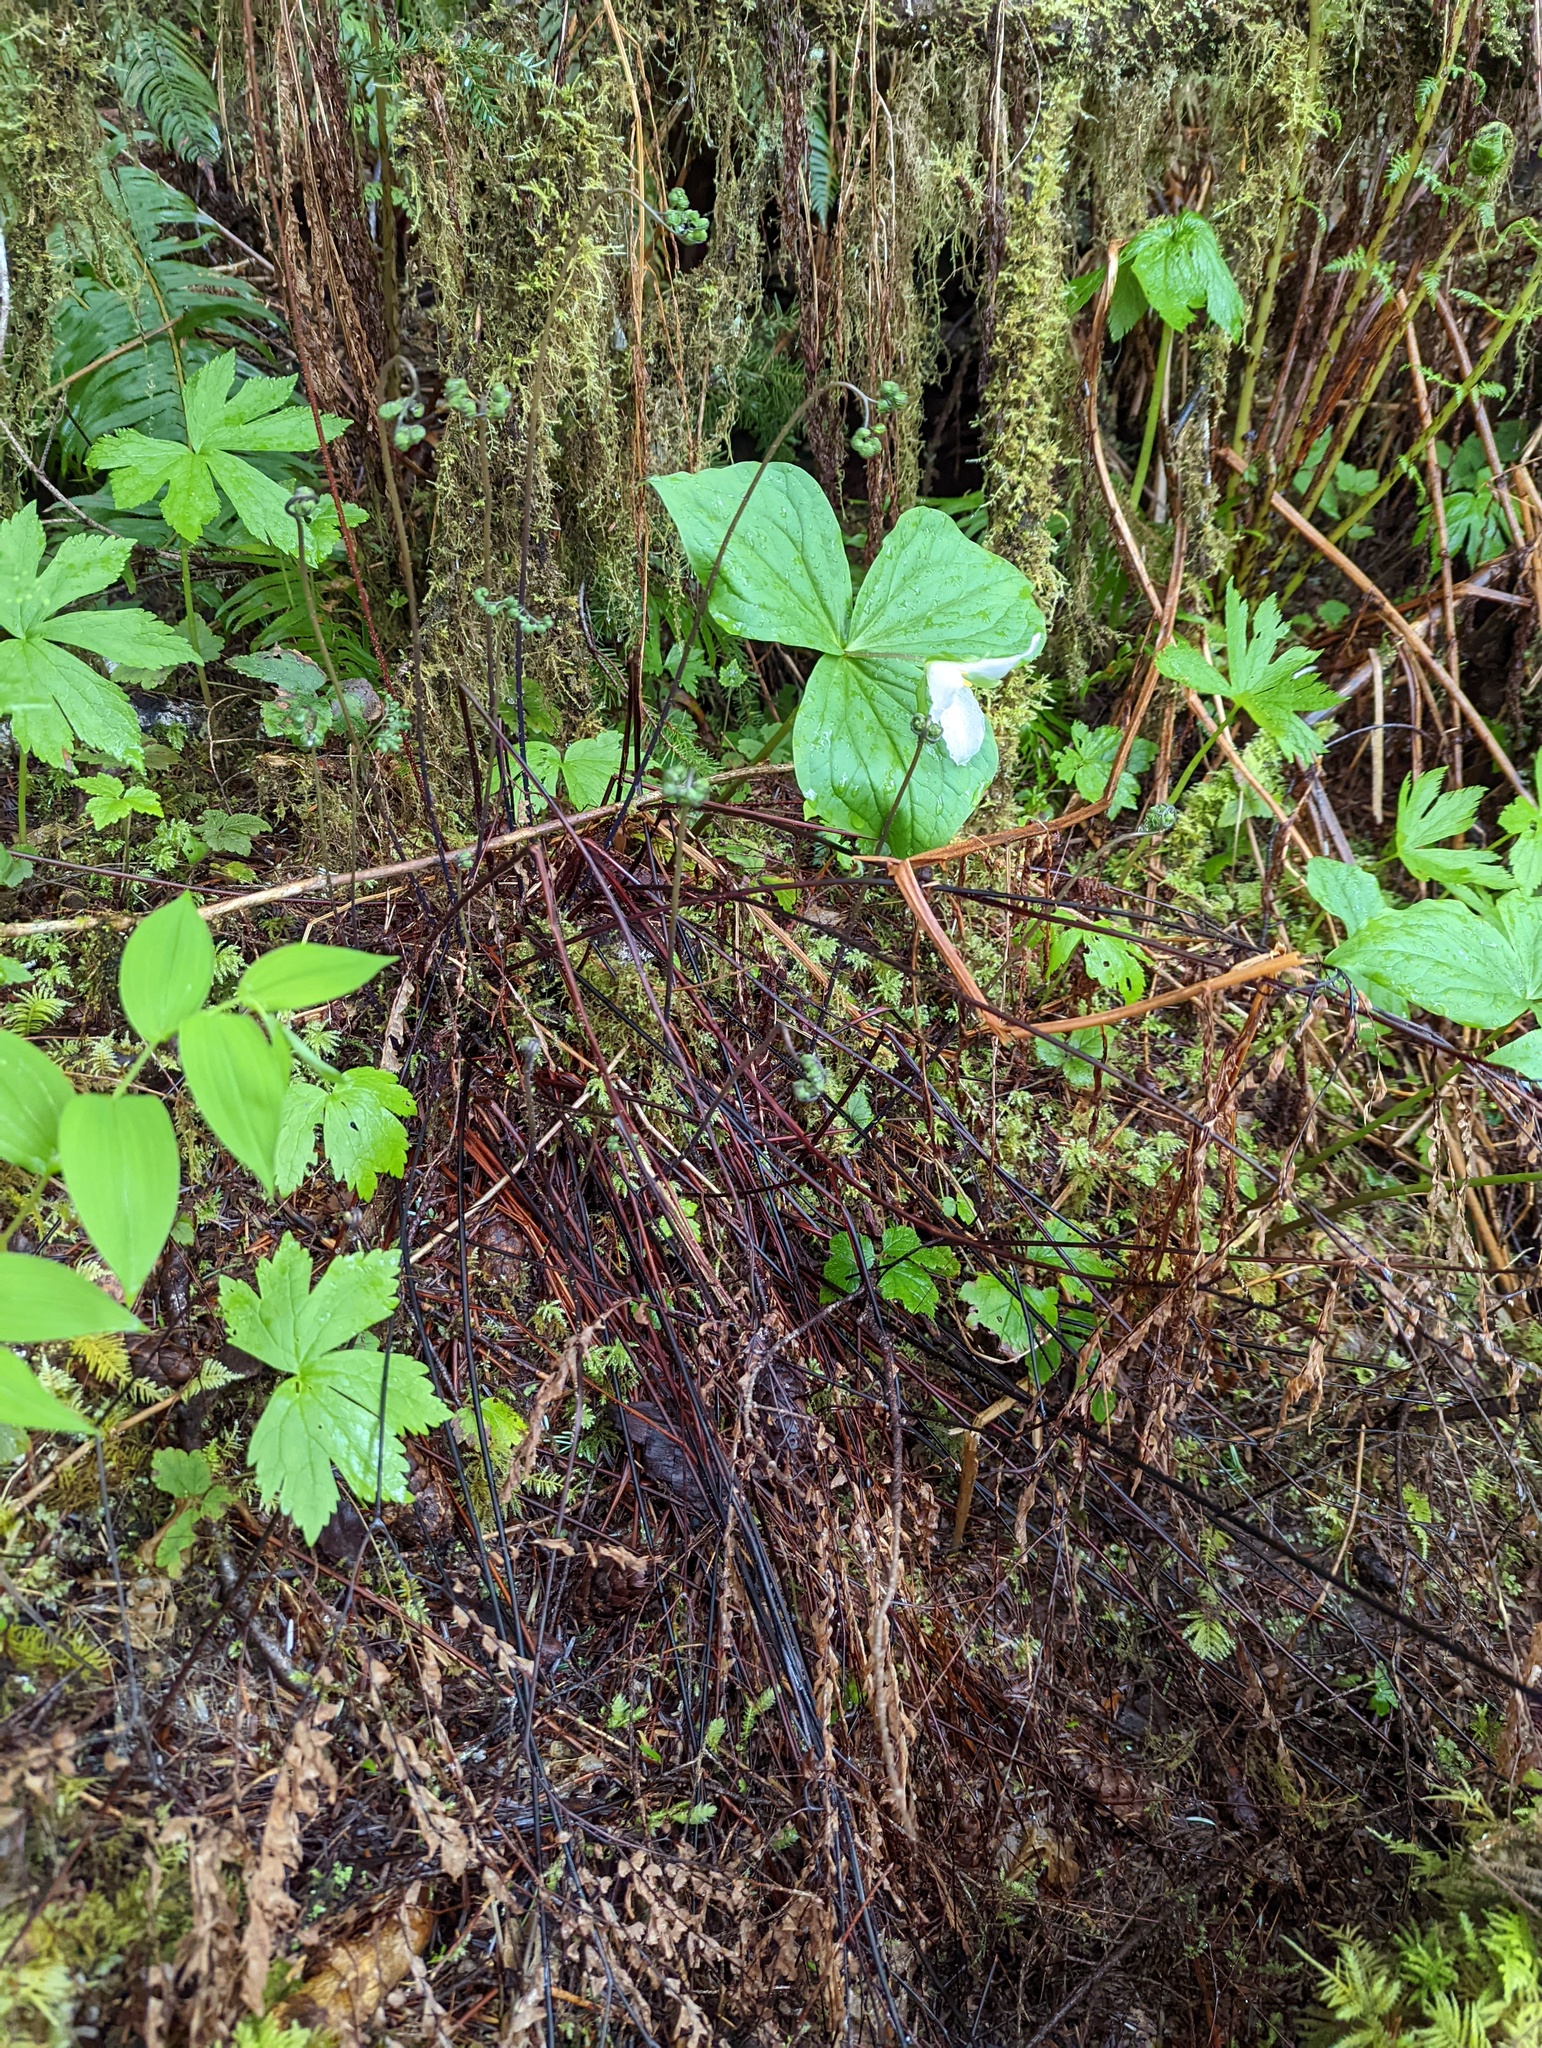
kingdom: Plantae
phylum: Tracheophyta
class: Polypodiopsida
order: Polypodiales
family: Pteridaceae
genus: Adiantum
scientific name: Adiantum aleuticum
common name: Aleutian maidenhair fern
